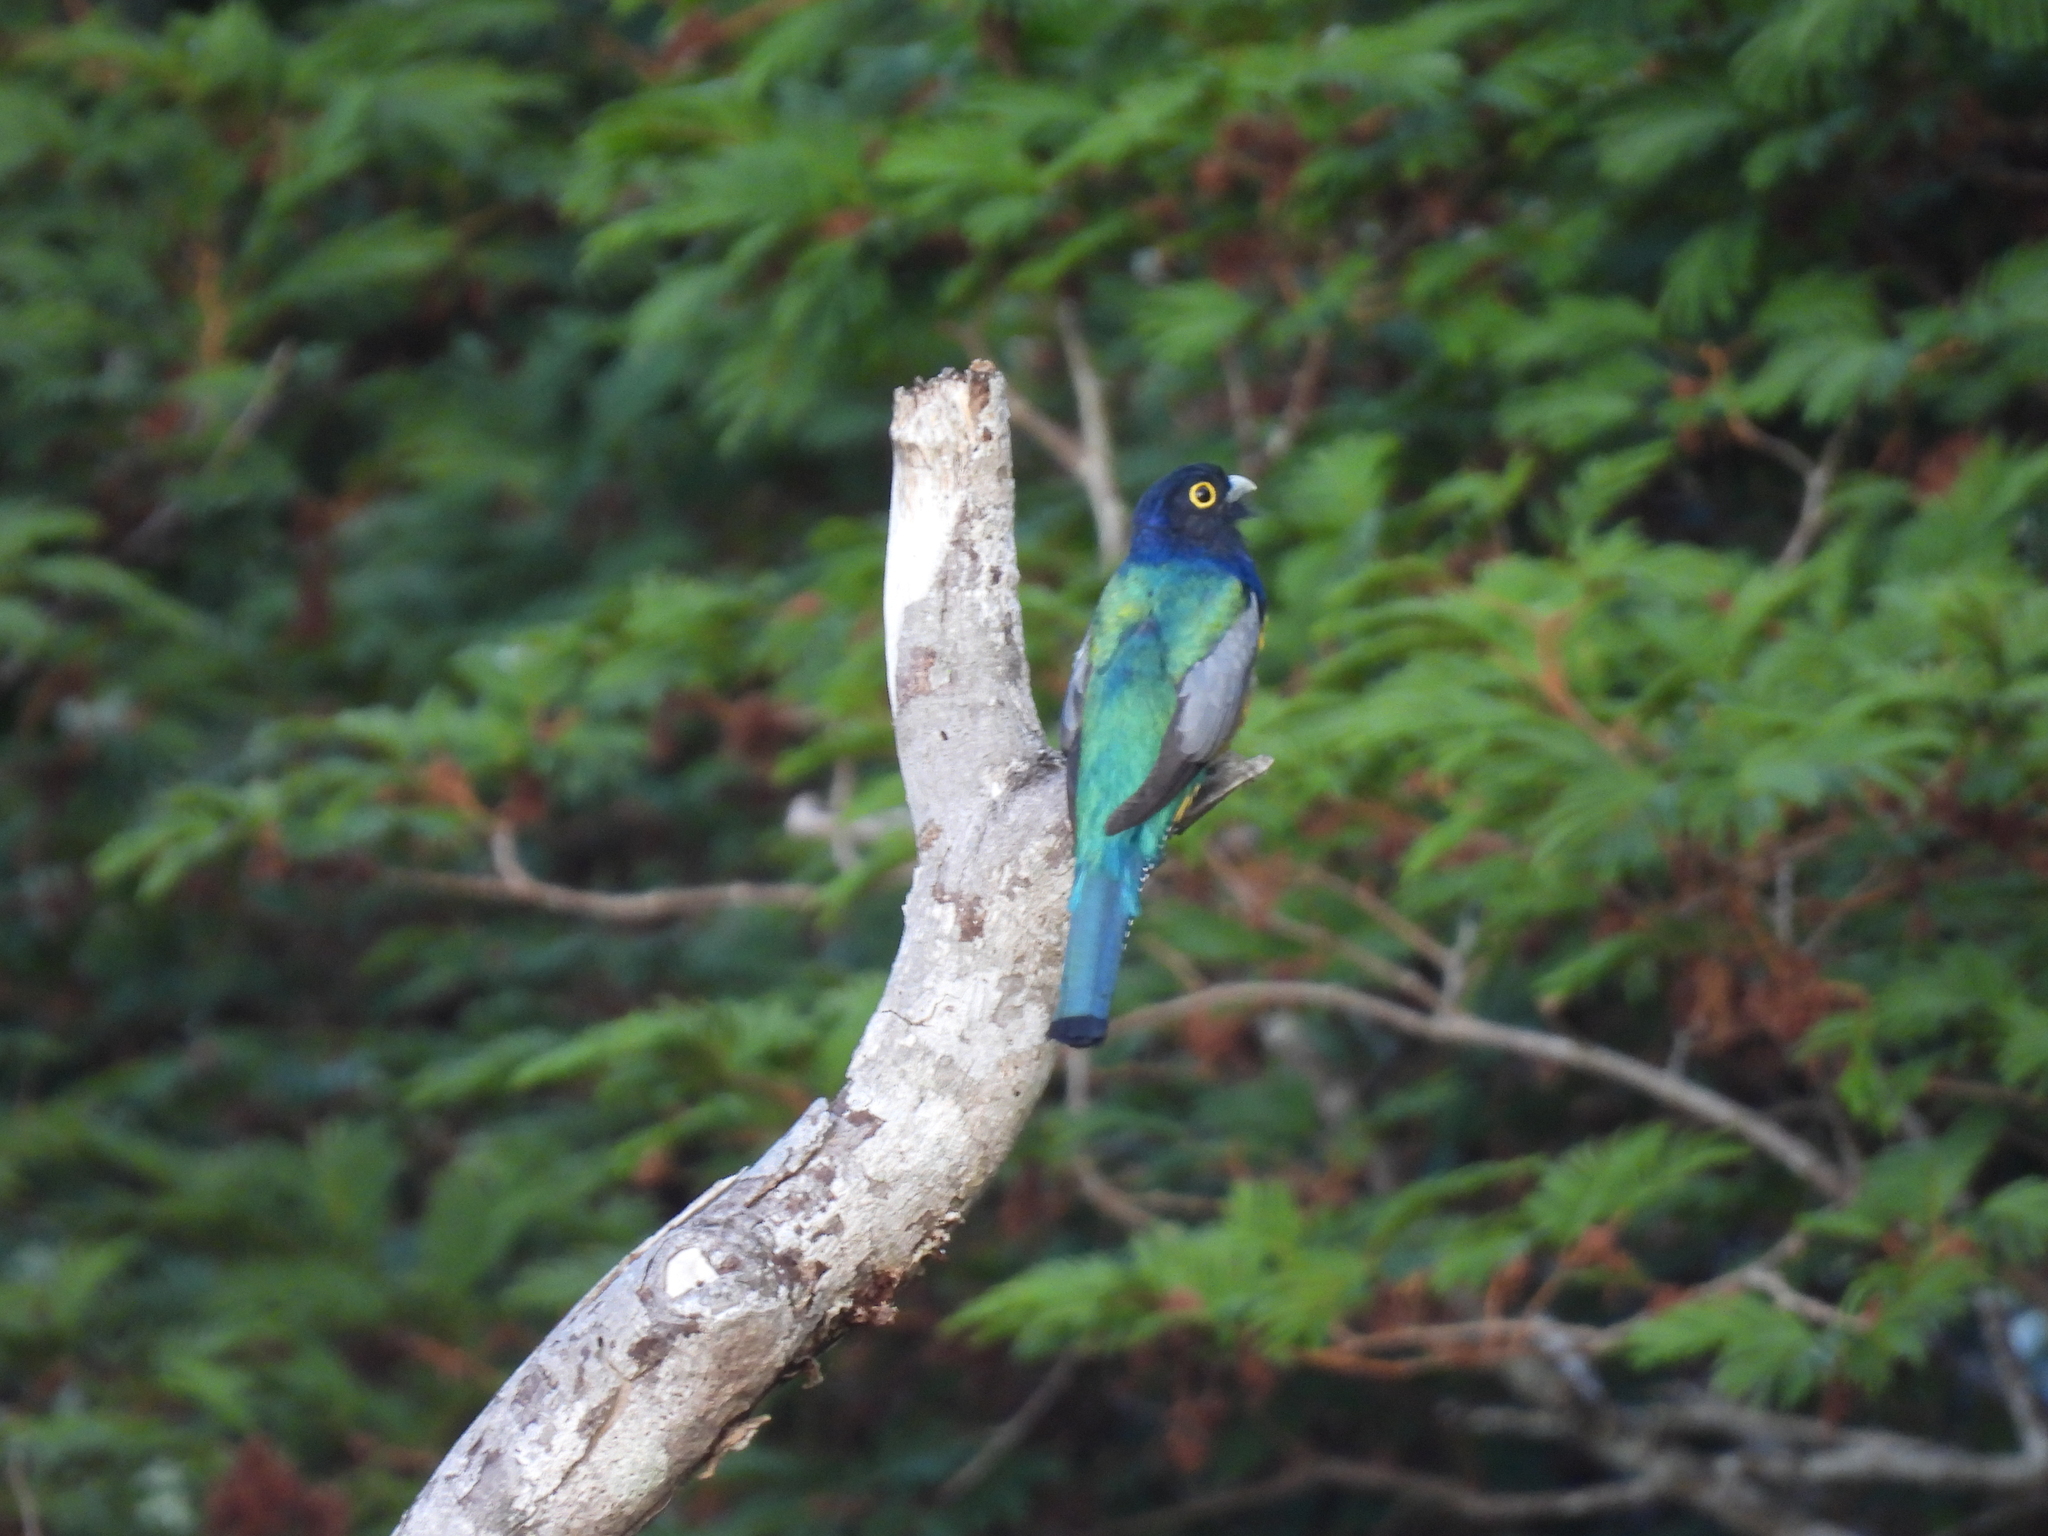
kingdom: Animalia
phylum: Chordata
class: Aves
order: Trogoniformes
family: Trogonidae
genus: Trogon
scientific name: Trogon caligatus
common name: Gartered trogon
